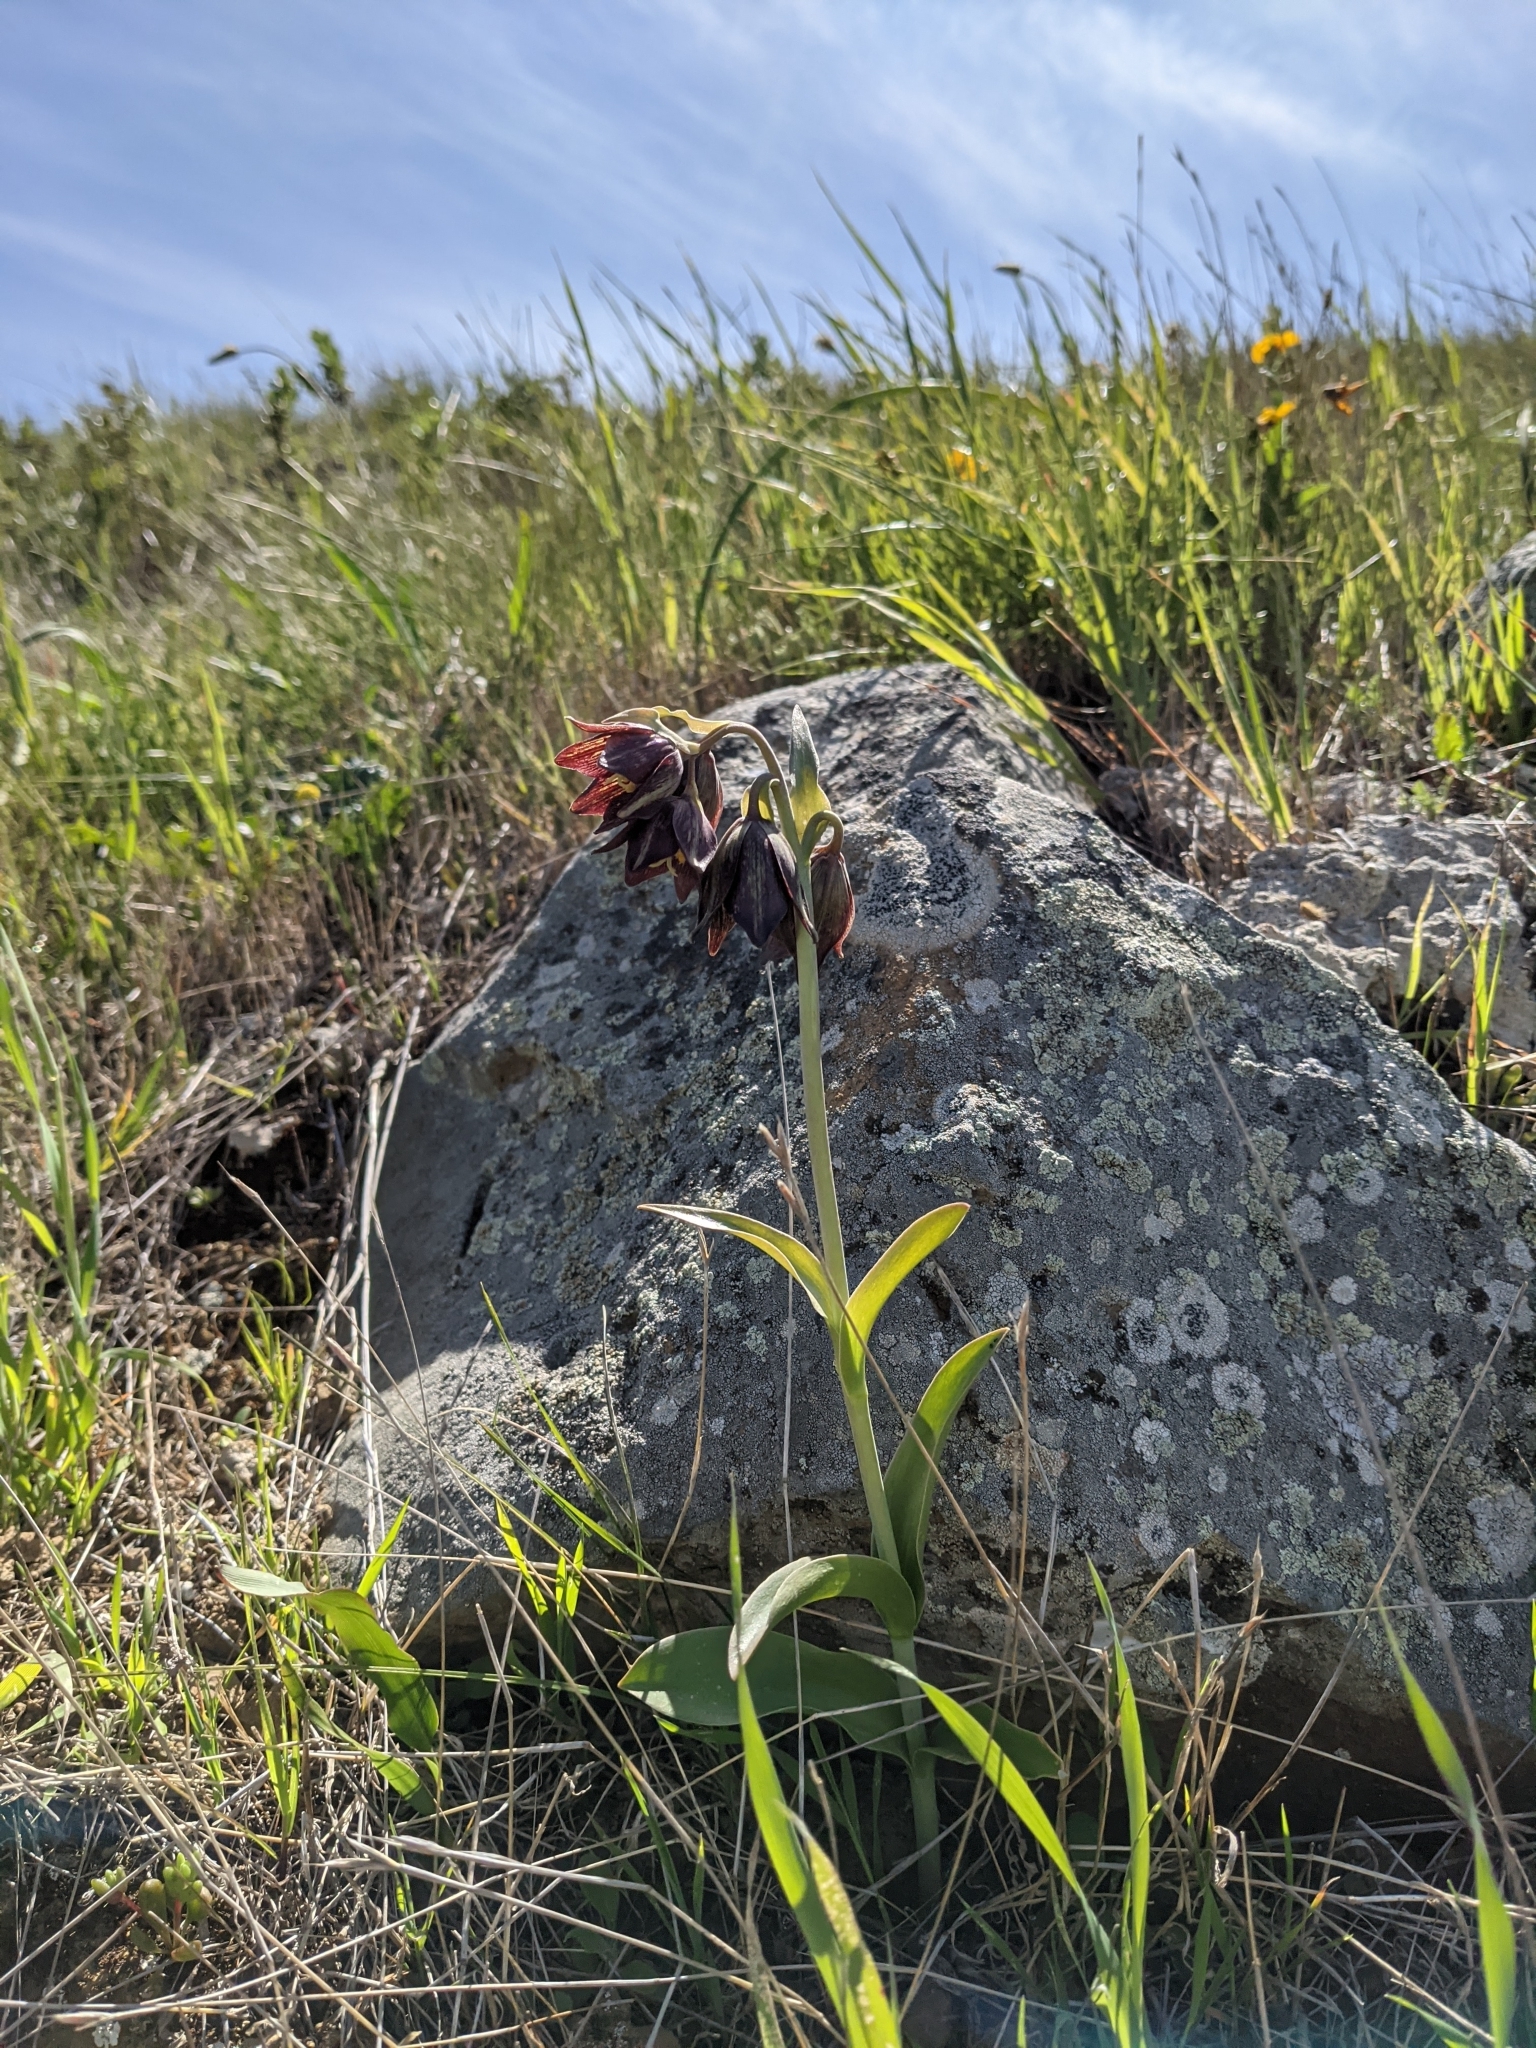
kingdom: Plantae
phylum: Tracheophyta
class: Liliopsida
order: Liliales
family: Liliaceae
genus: Fritillaria
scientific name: Fritillaria biflora
